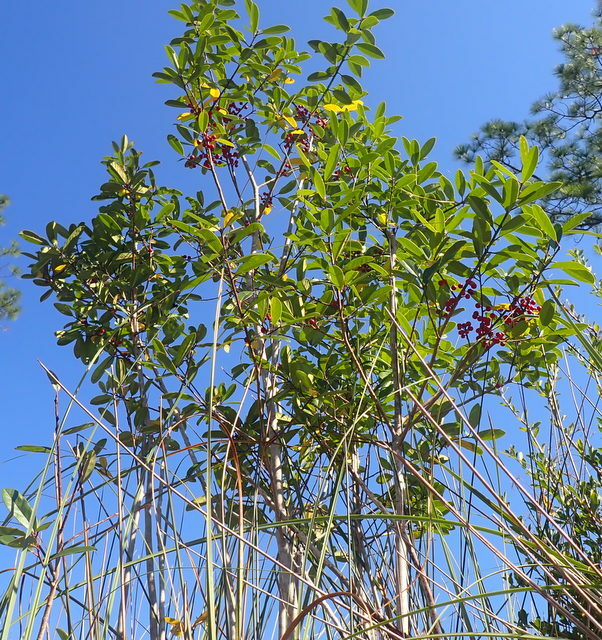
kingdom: Plantae
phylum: Tracheophyta
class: Magnoliopsida
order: Aquifoliales
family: Aquifoliaceae
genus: Ilex
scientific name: Ilex cassine
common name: Dahoon
